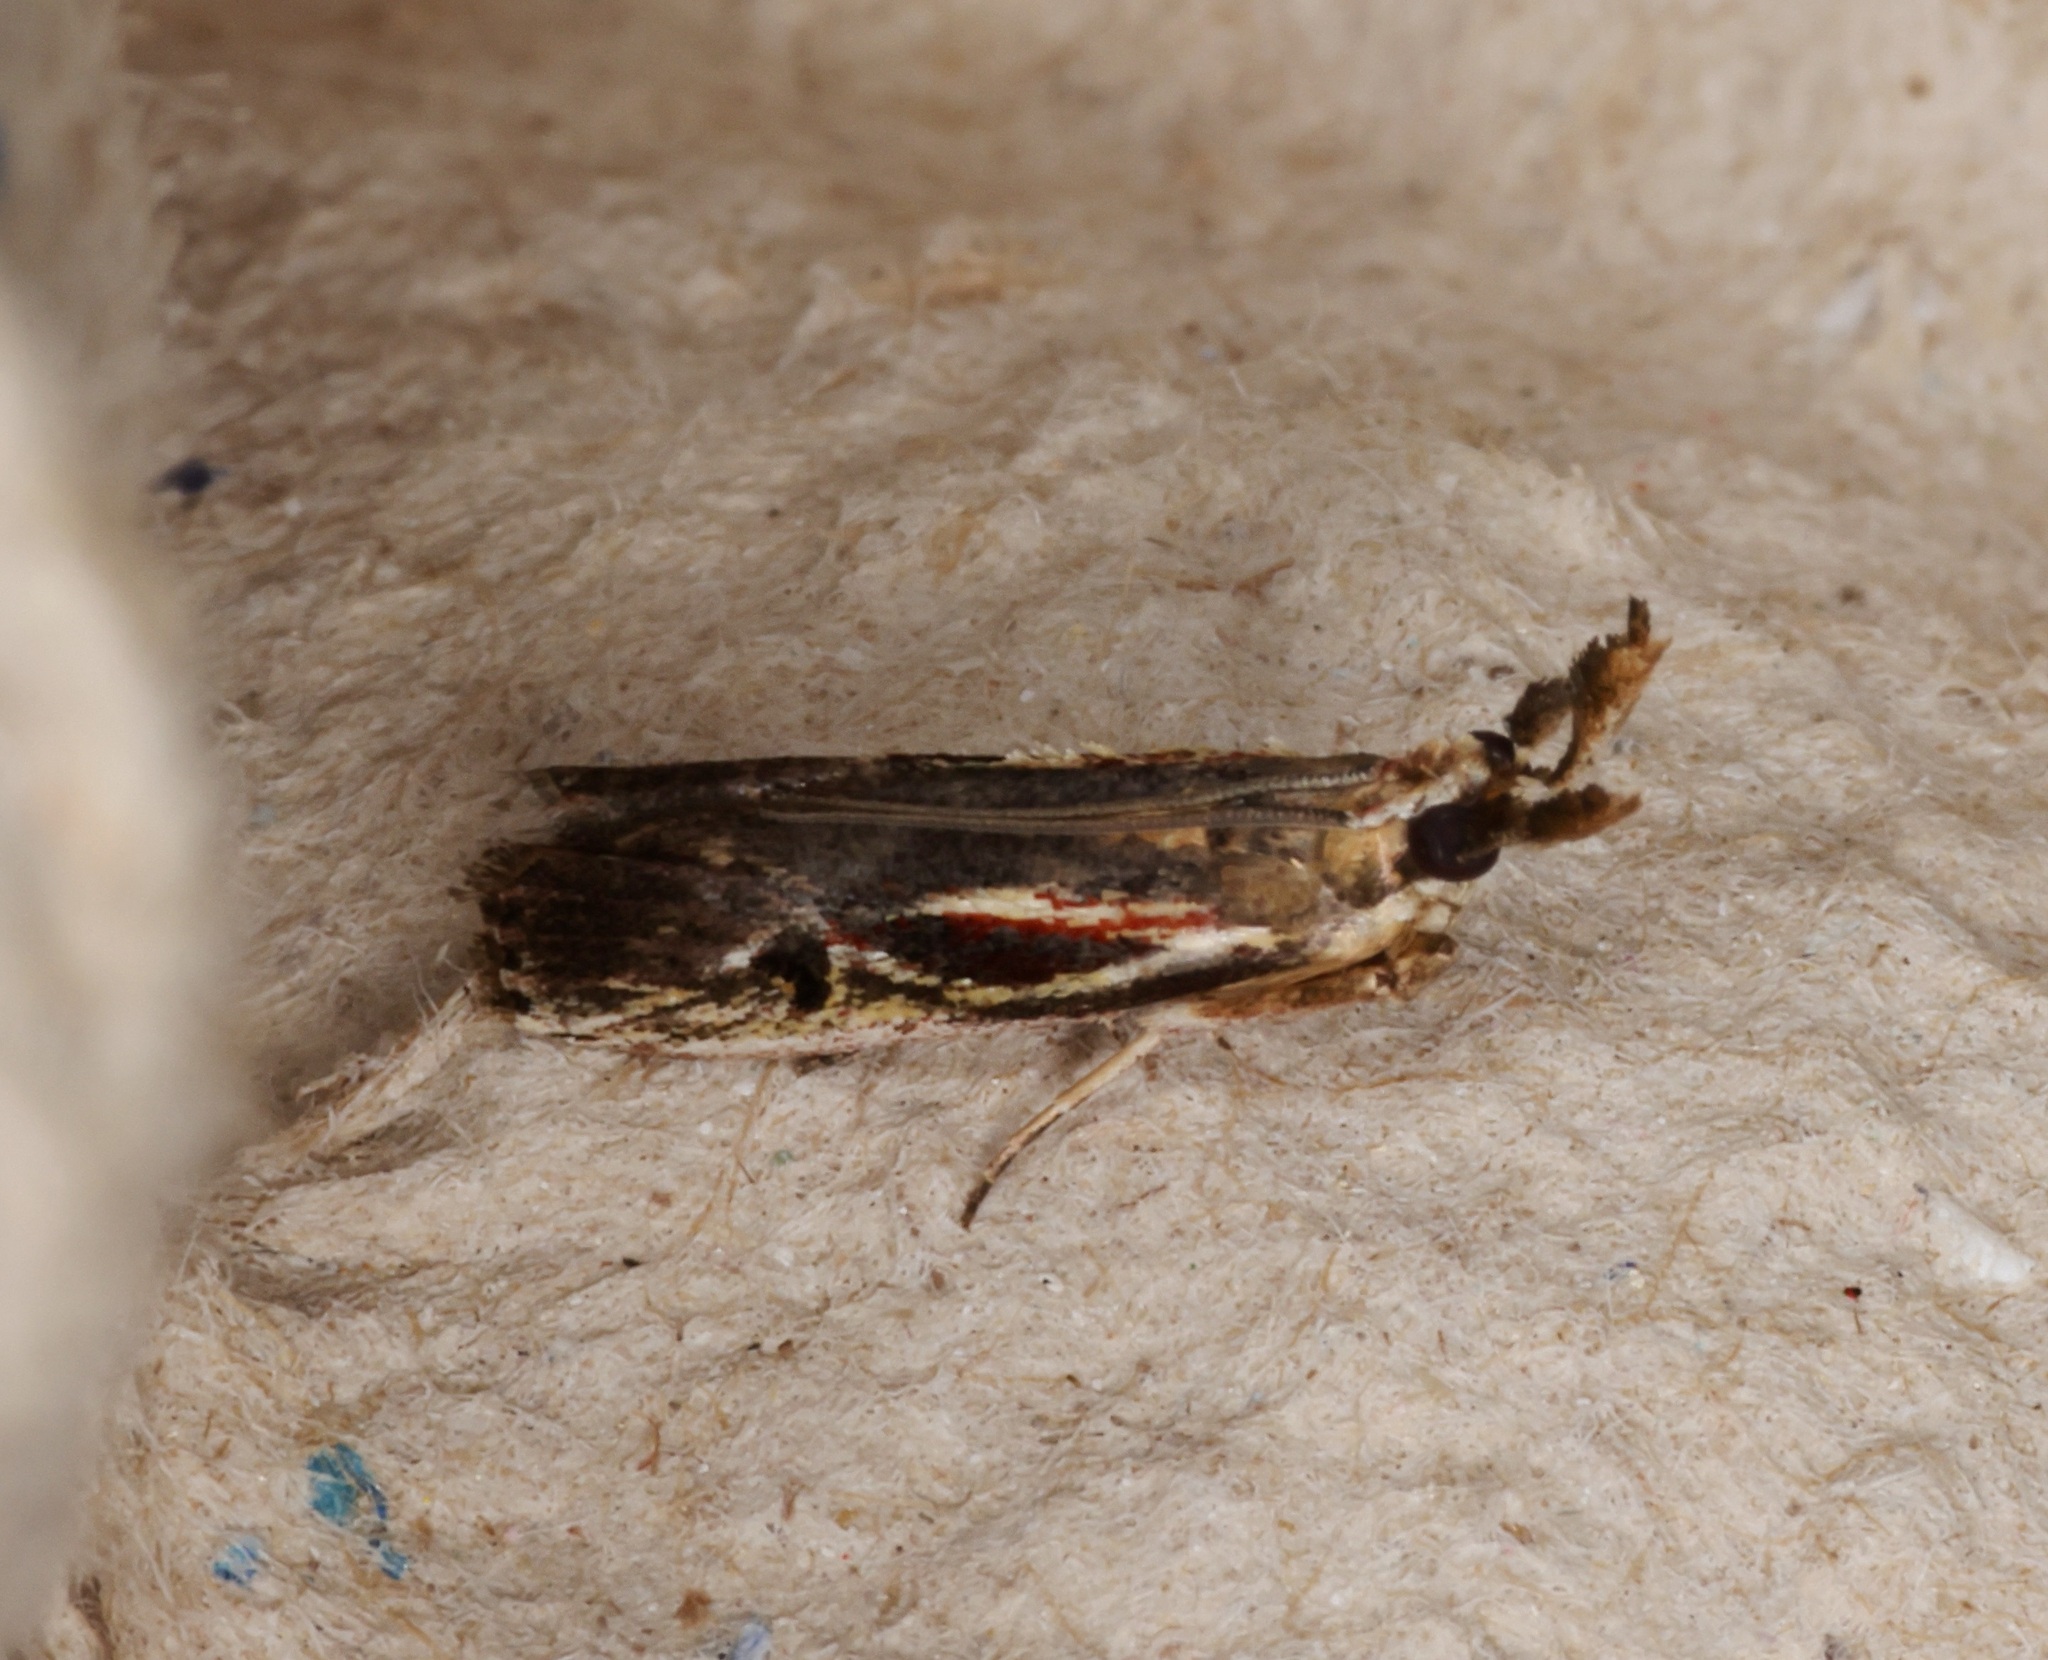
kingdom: Animalia
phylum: Arthropoda
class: Insecta
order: Lepidoptera
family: Pyralidae
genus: Pseudodavara
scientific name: Pseudodavara haemaphoralis
